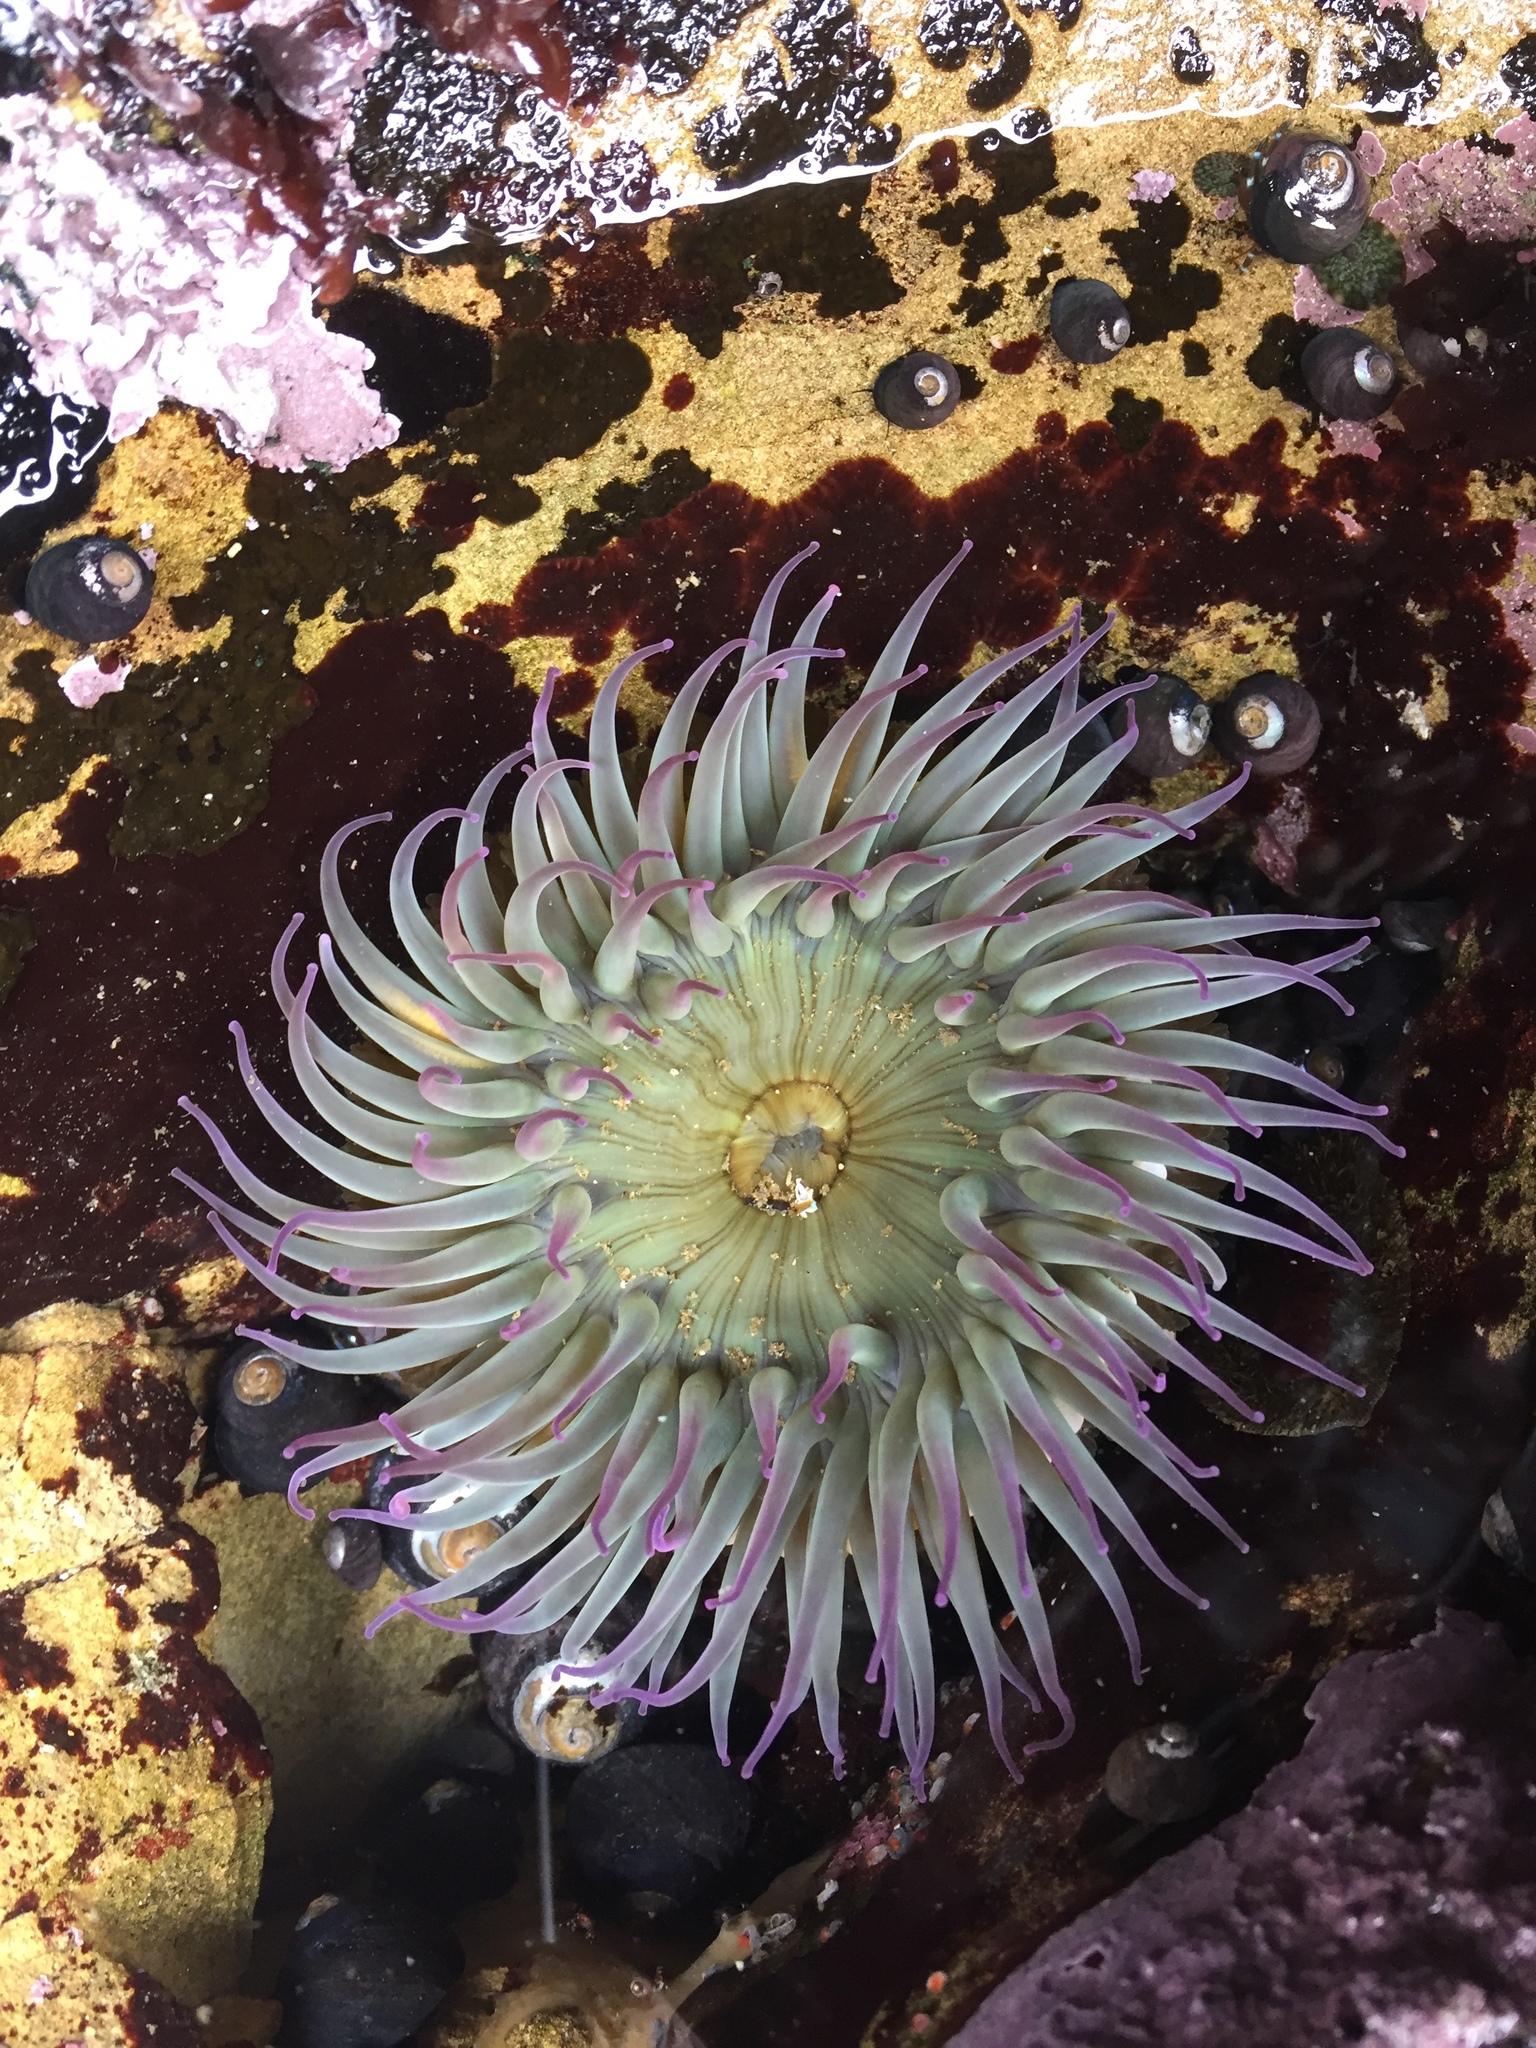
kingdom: Animalia
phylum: Cnidaria
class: Anthozoa
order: Actiniaria
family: Actiniidae
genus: Anthopleura
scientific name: Anthopleura sola
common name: Sun anemone
